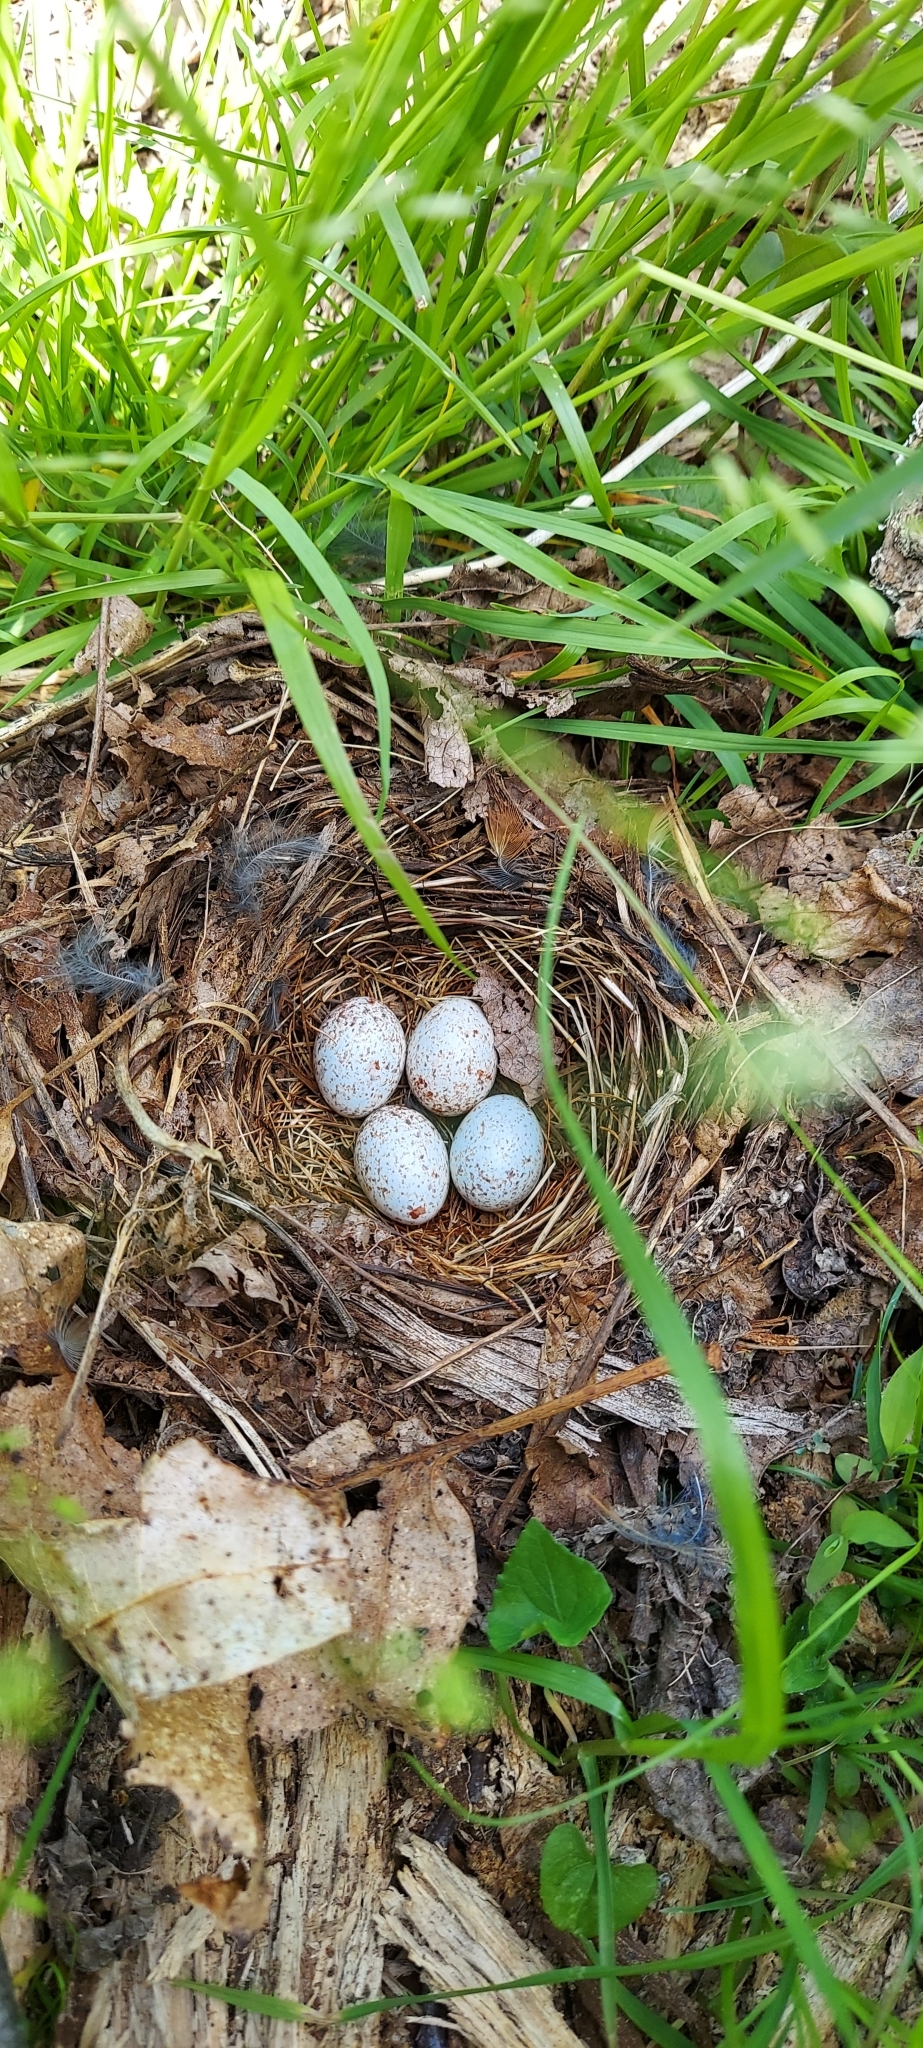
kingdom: Animalia
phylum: Chordata
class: Aves
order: Passeriformes
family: Passerellidae
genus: Pipilo
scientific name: Pipilo erythrophthalmus
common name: Eastern towhee
